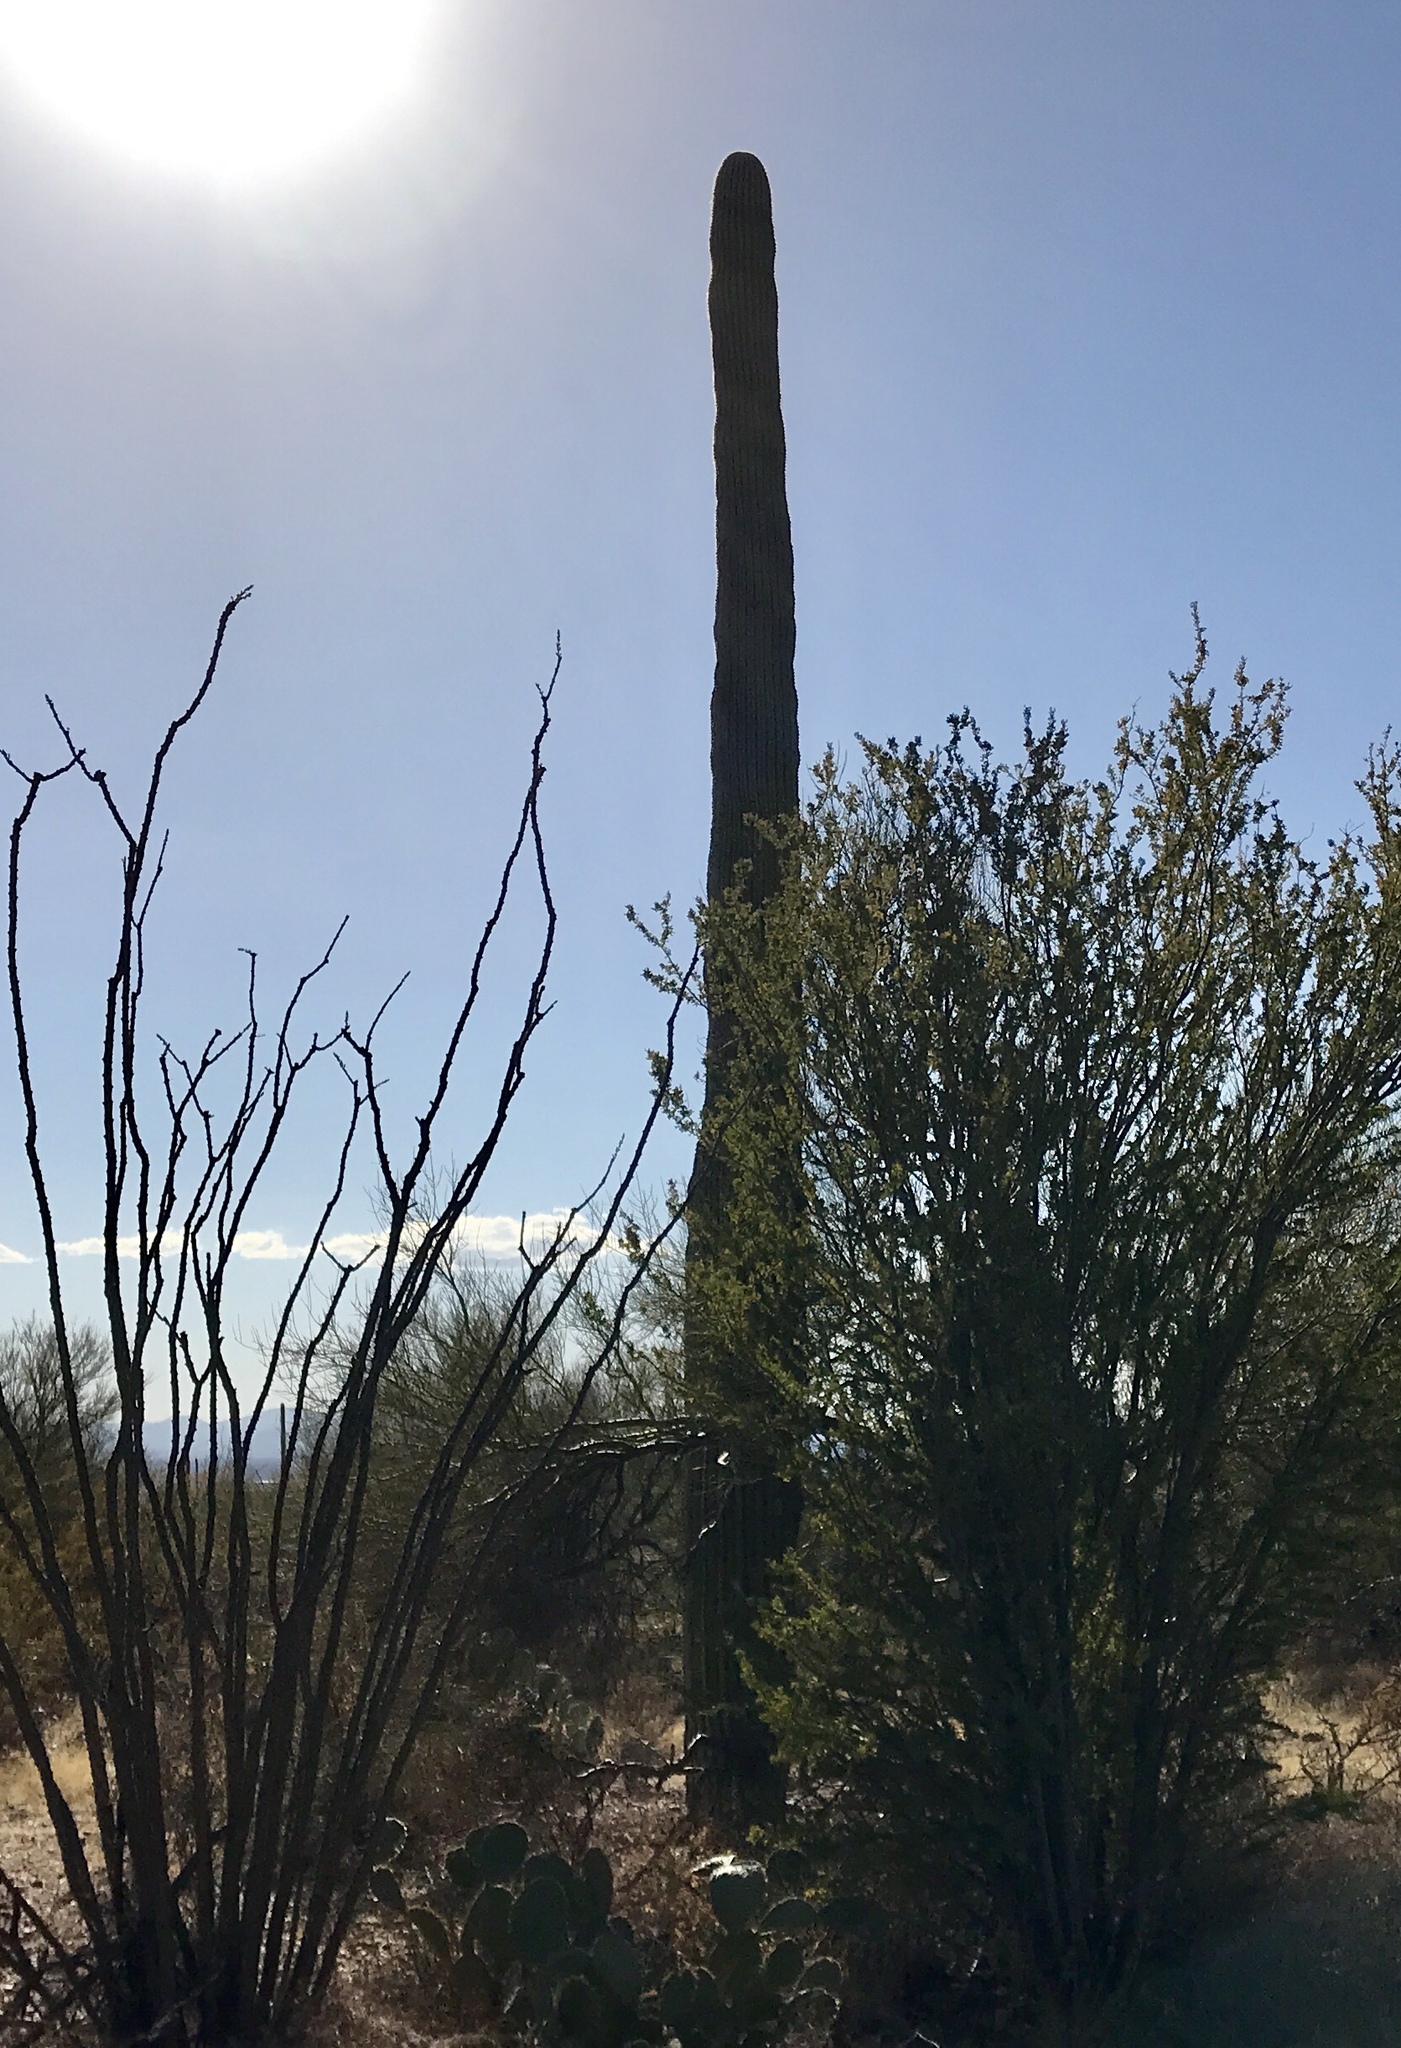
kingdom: Plantae
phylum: Tracheophyta
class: Magnoliopsida
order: Caryophyllales
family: Cactaceae
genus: Carnegiea
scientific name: Carnegiea gigantea
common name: Saguaro
